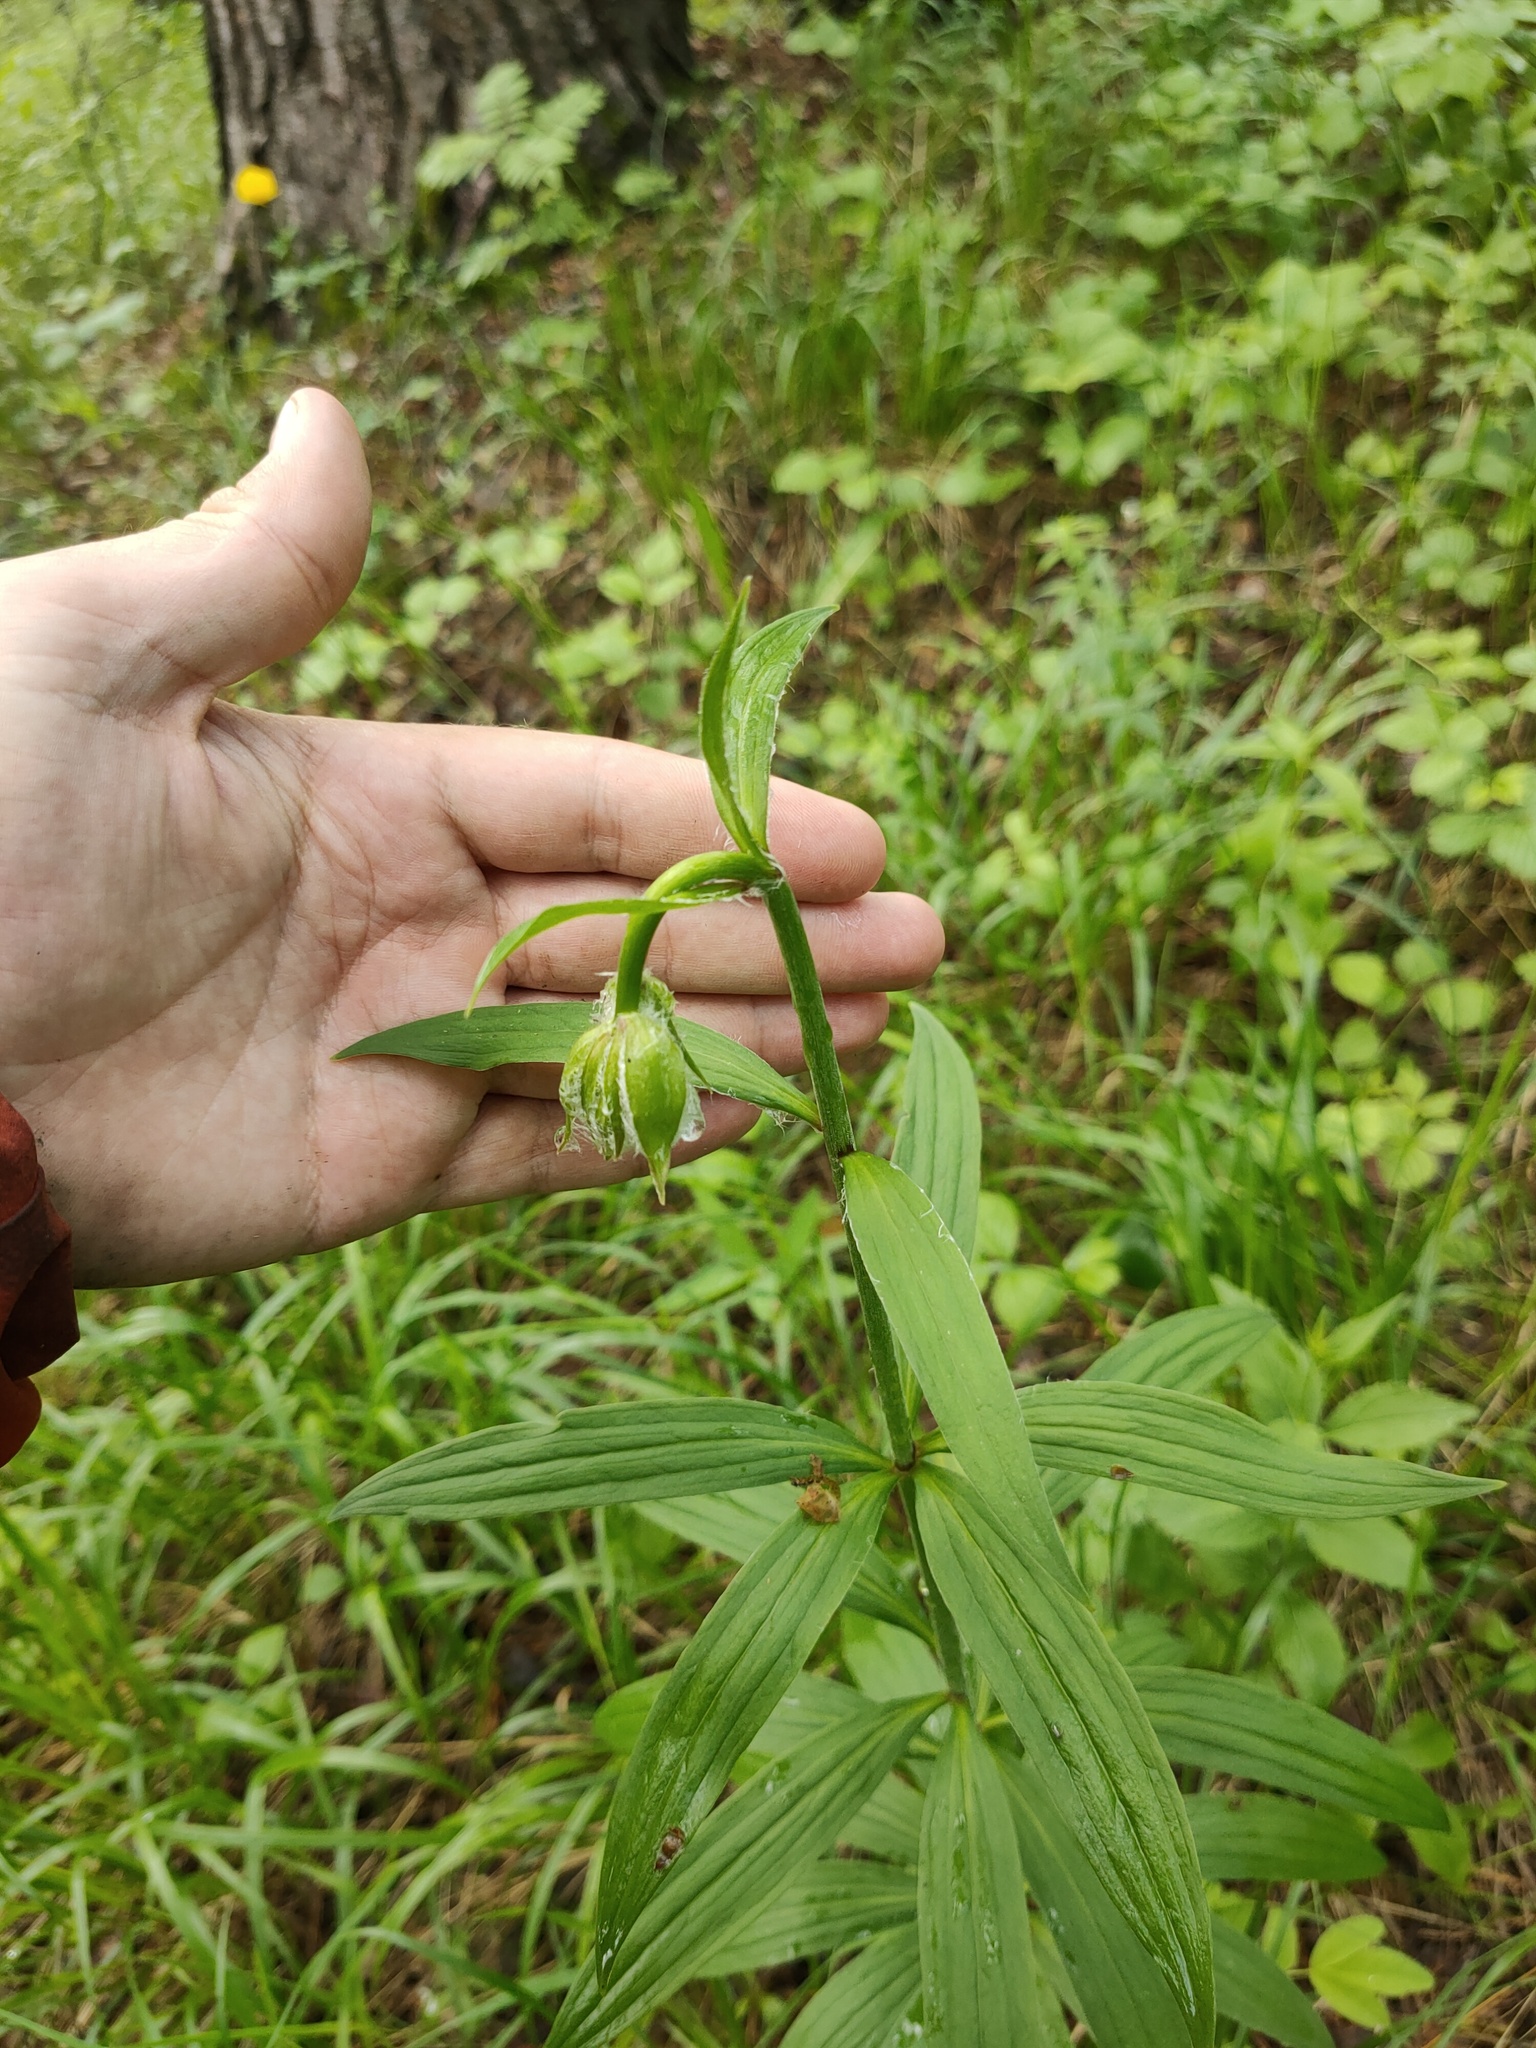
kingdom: Plantae
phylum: Tracheophyta
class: Liliopsida
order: Liliales
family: Liliaceae
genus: Lilium
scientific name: Lilium martagon
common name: Martagon lily
